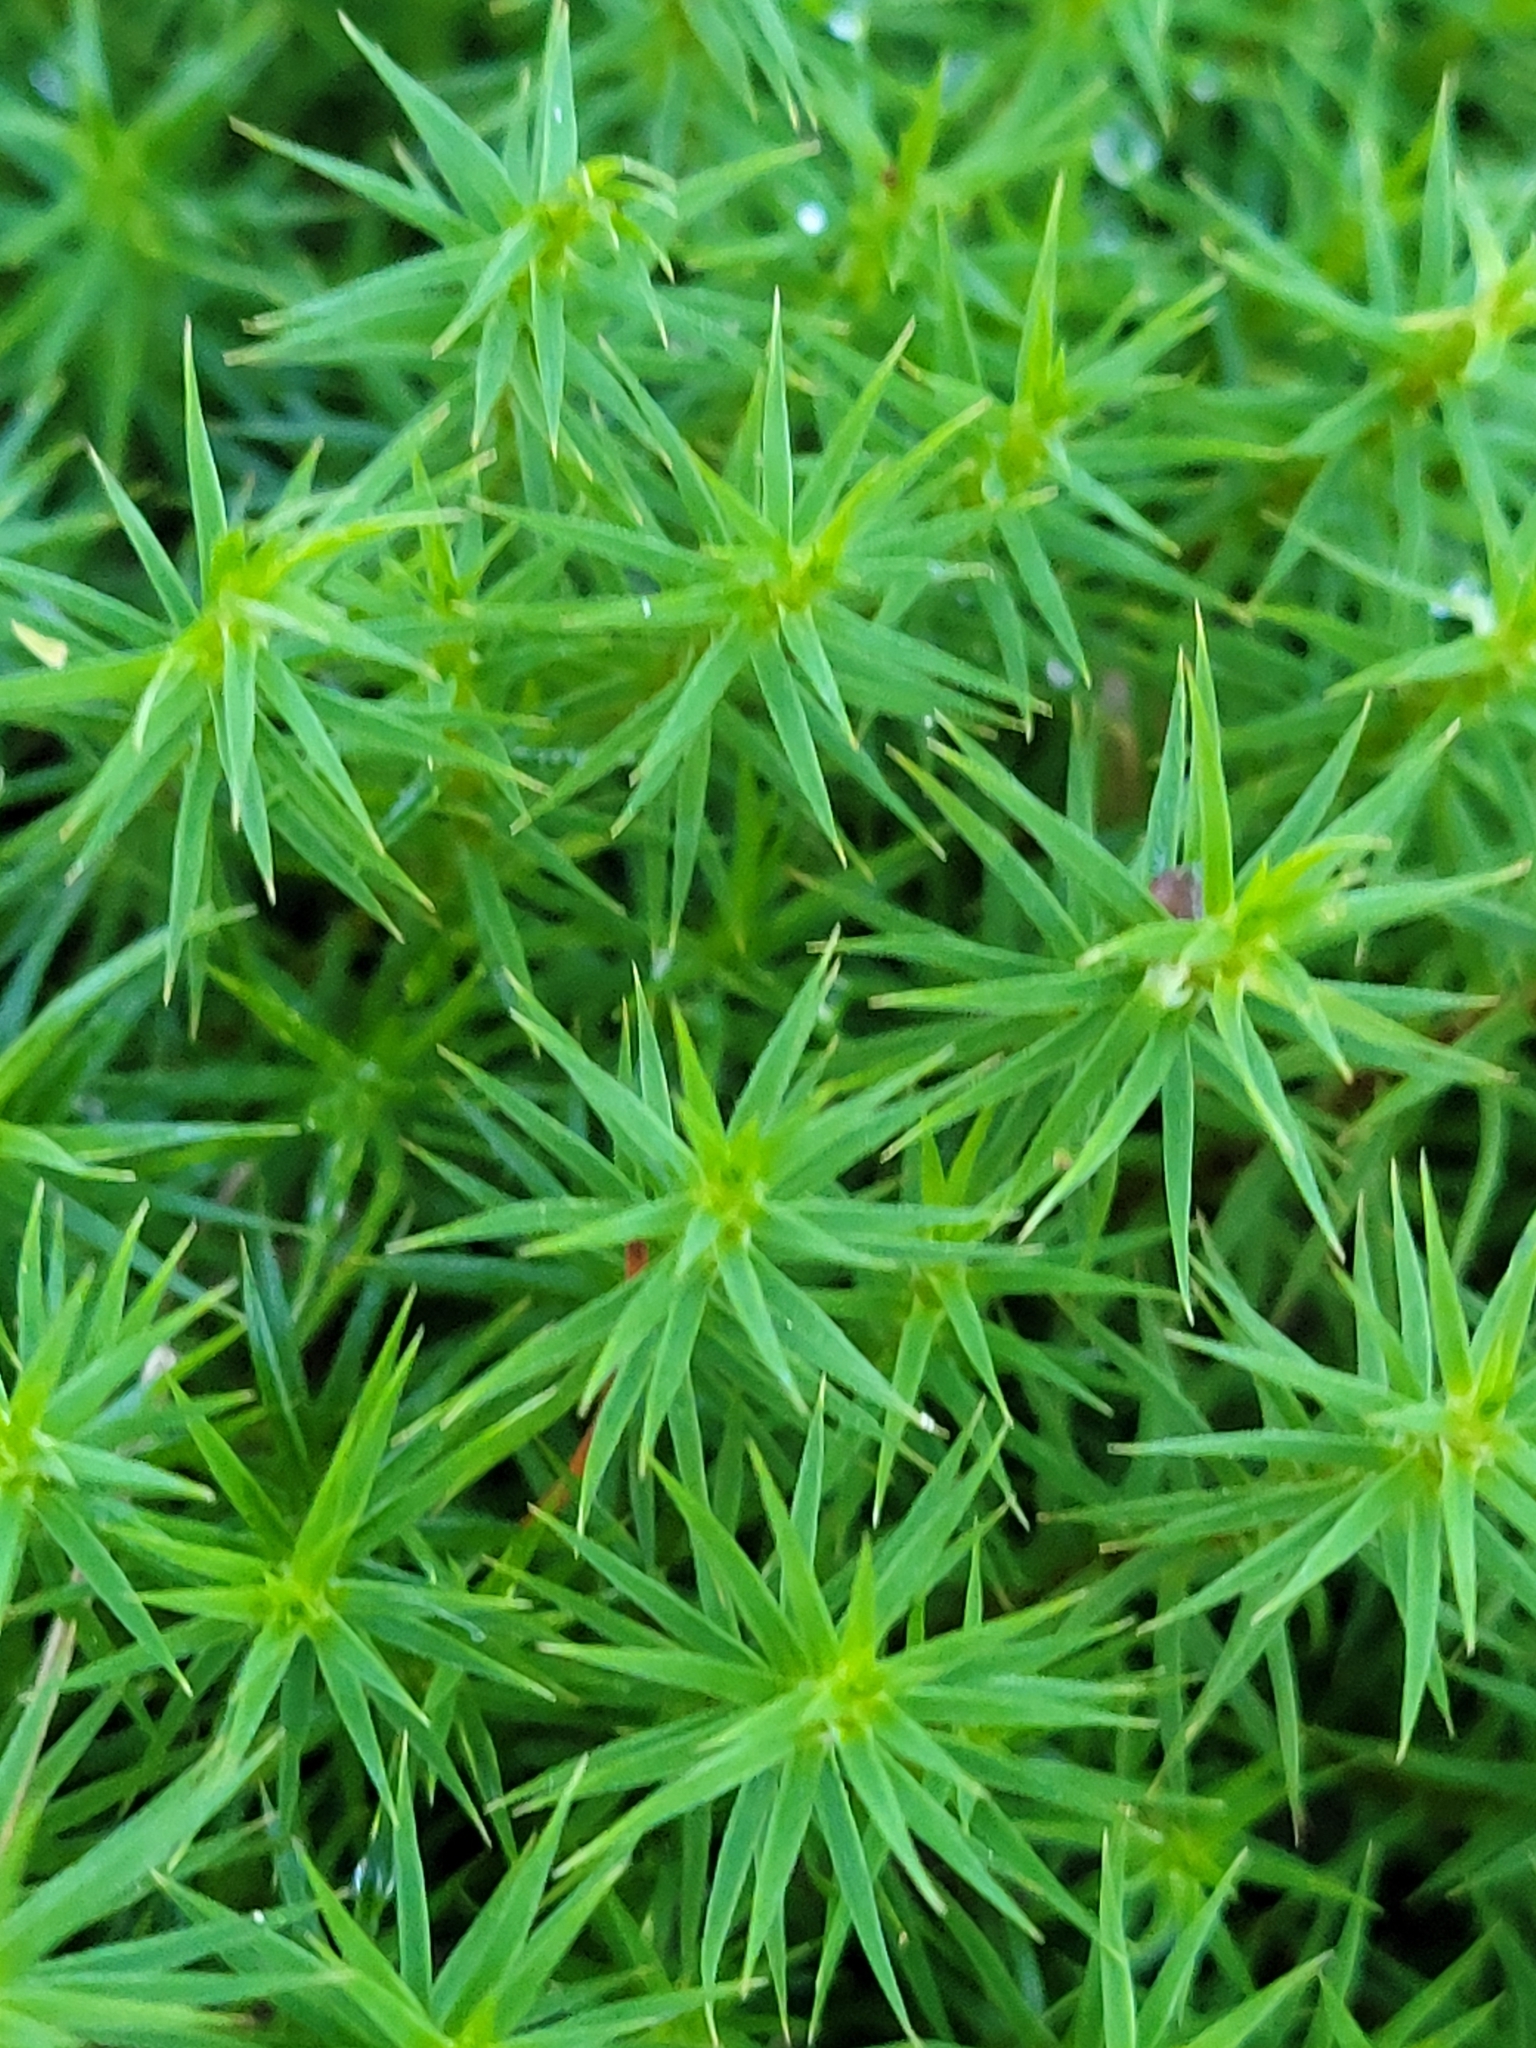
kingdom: Plantae
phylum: Bryophyta
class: Polytrichopsida
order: Polytrichales
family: Polytrichaceae
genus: Polytrichum
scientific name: Polytrichum formosum
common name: Bank haircap moss
